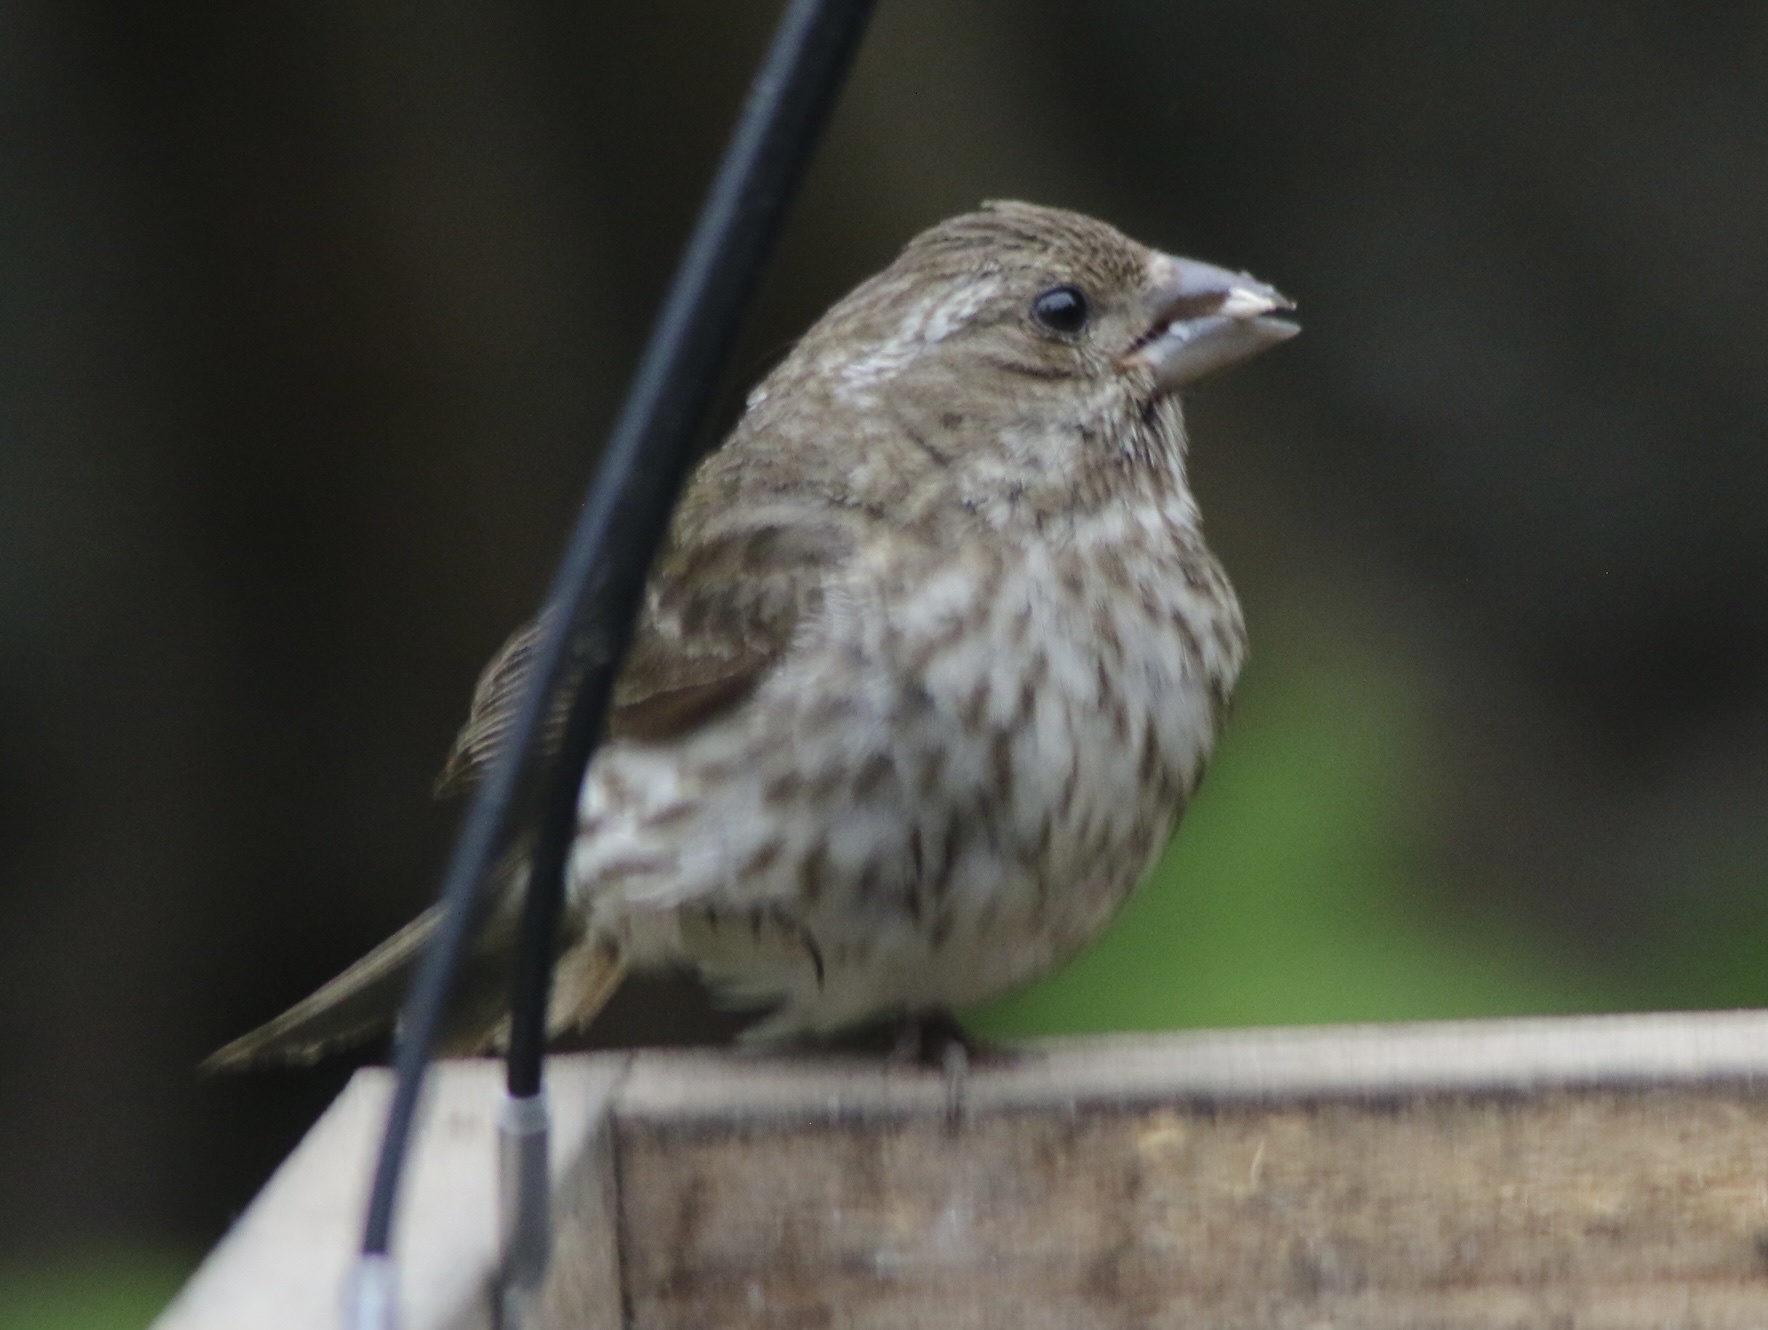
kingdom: Animalia
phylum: Chordata
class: Aves
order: Passeriformes
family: Fringillidae
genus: Haemorhous
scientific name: Haemorhous purpureus
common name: Purple finch
